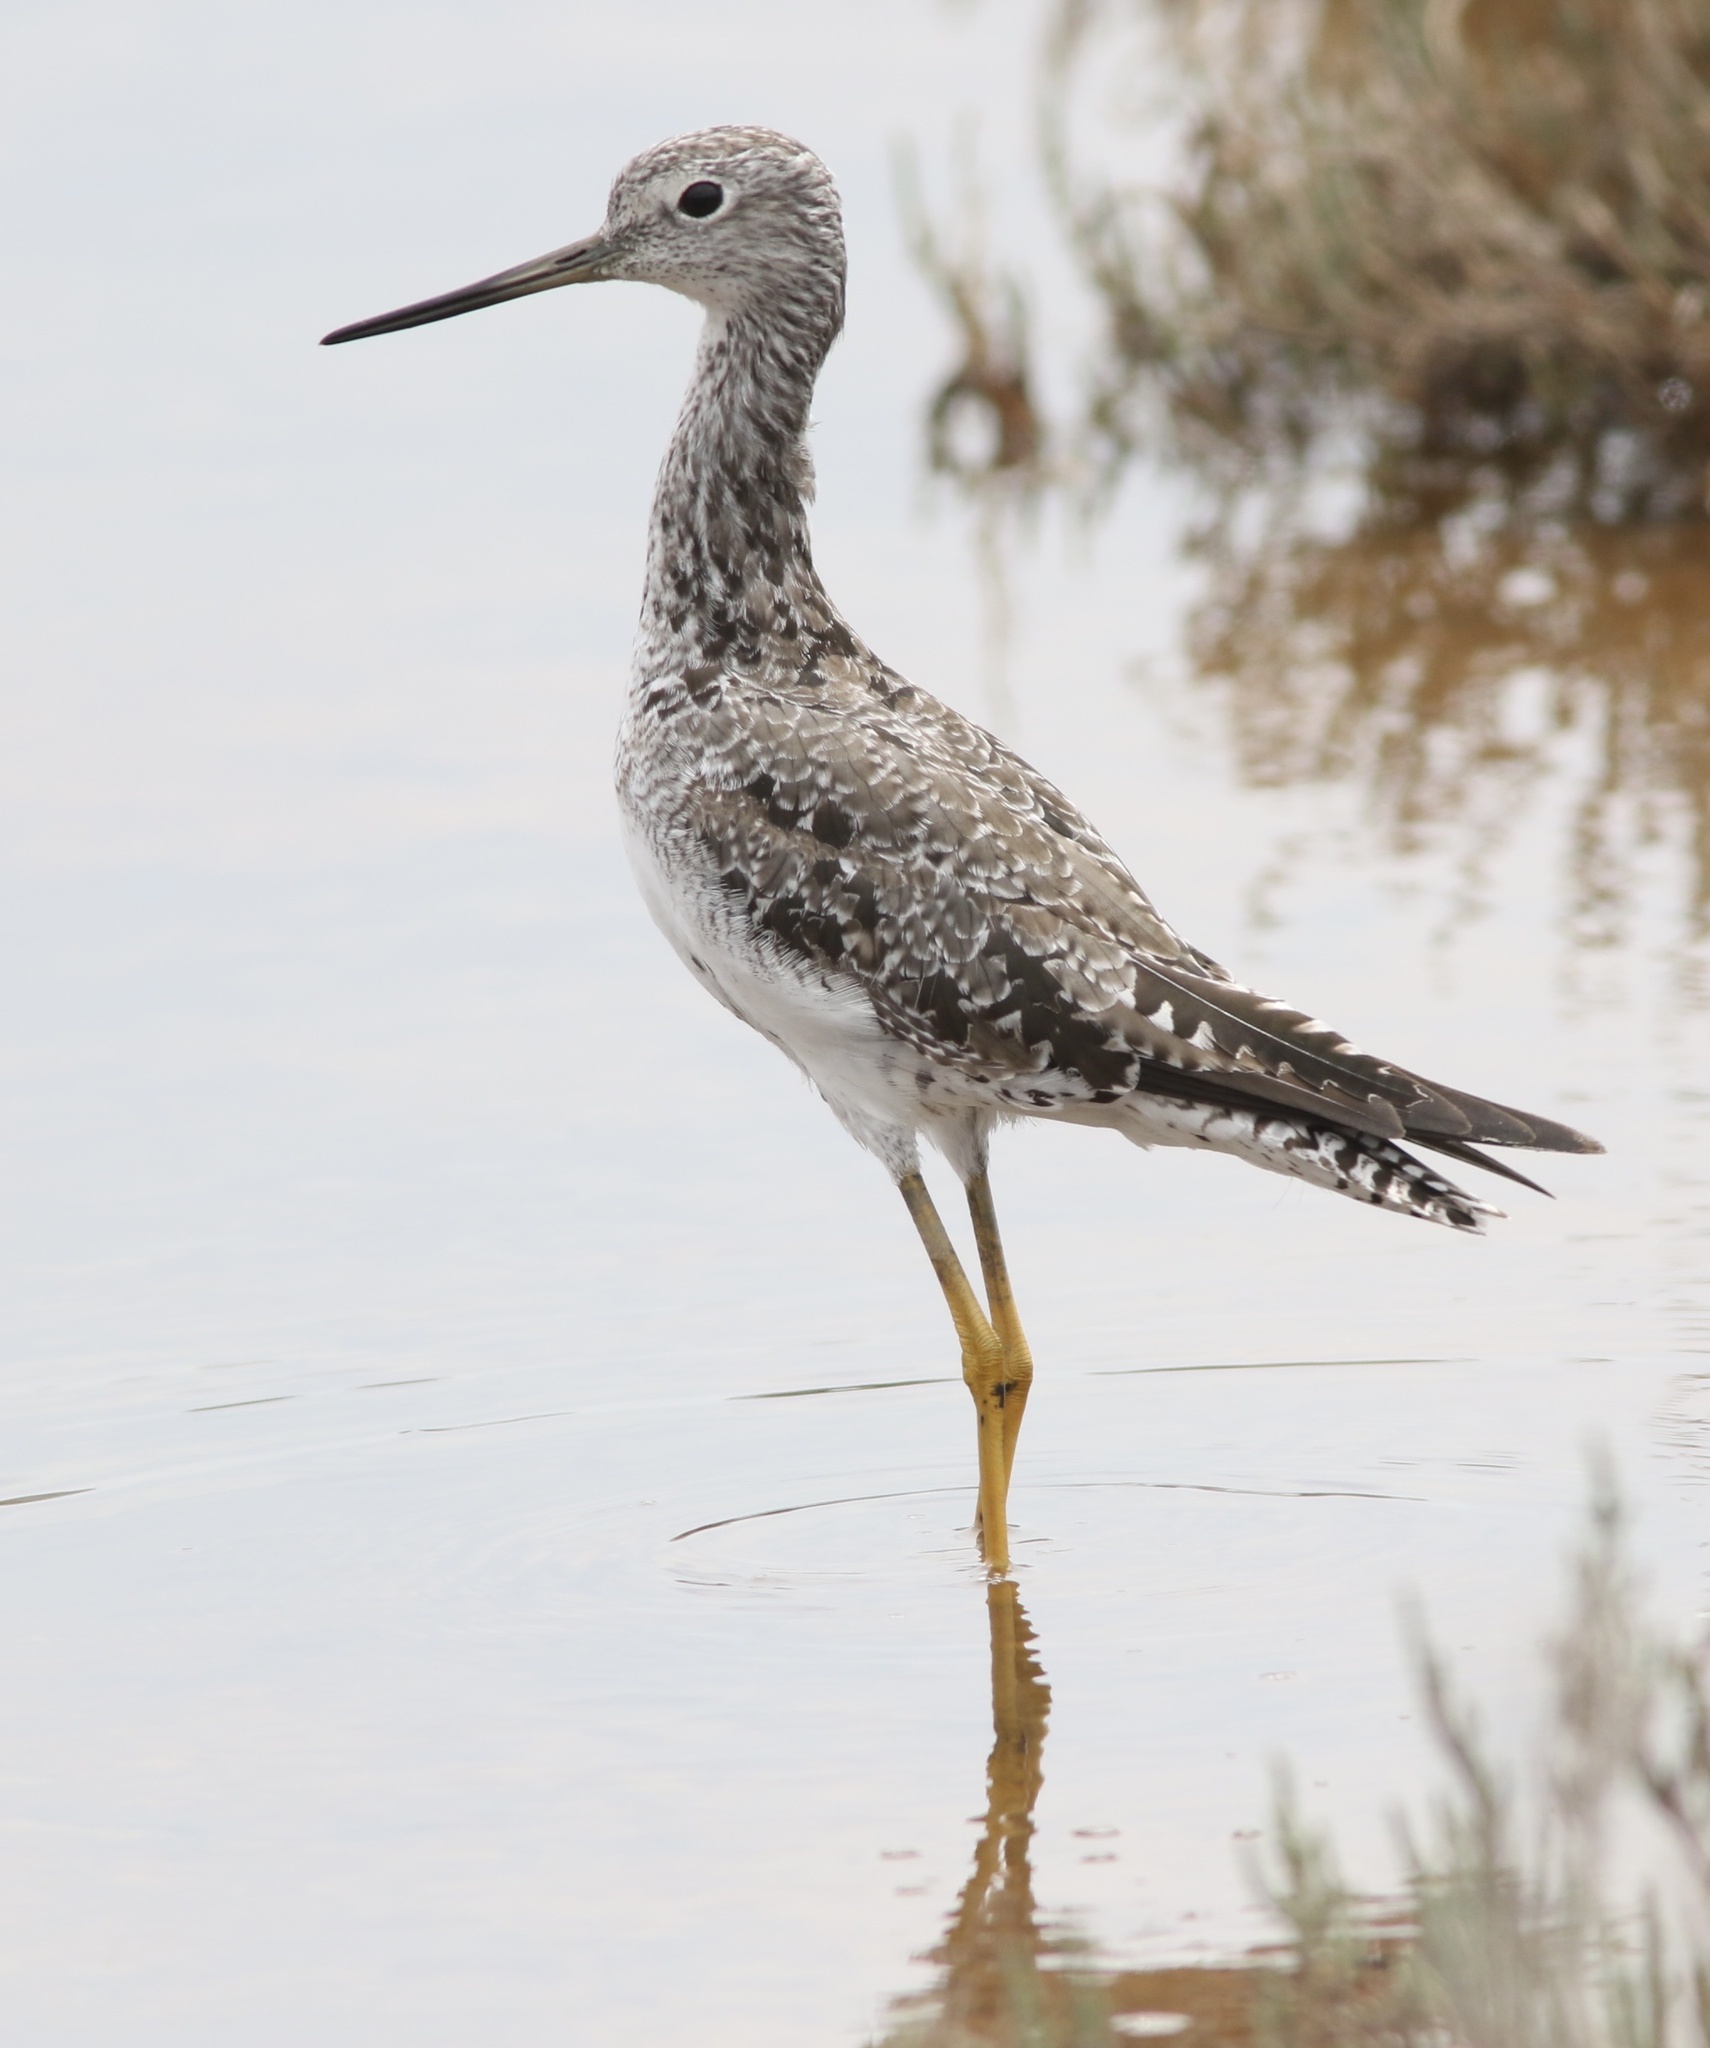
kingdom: Animalia
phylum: Chordata
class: Aves
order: Charadriiformes
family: Scolopacidae
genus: Tringa
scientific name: Tringa melanoleuca
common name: Greater yellowlegs
